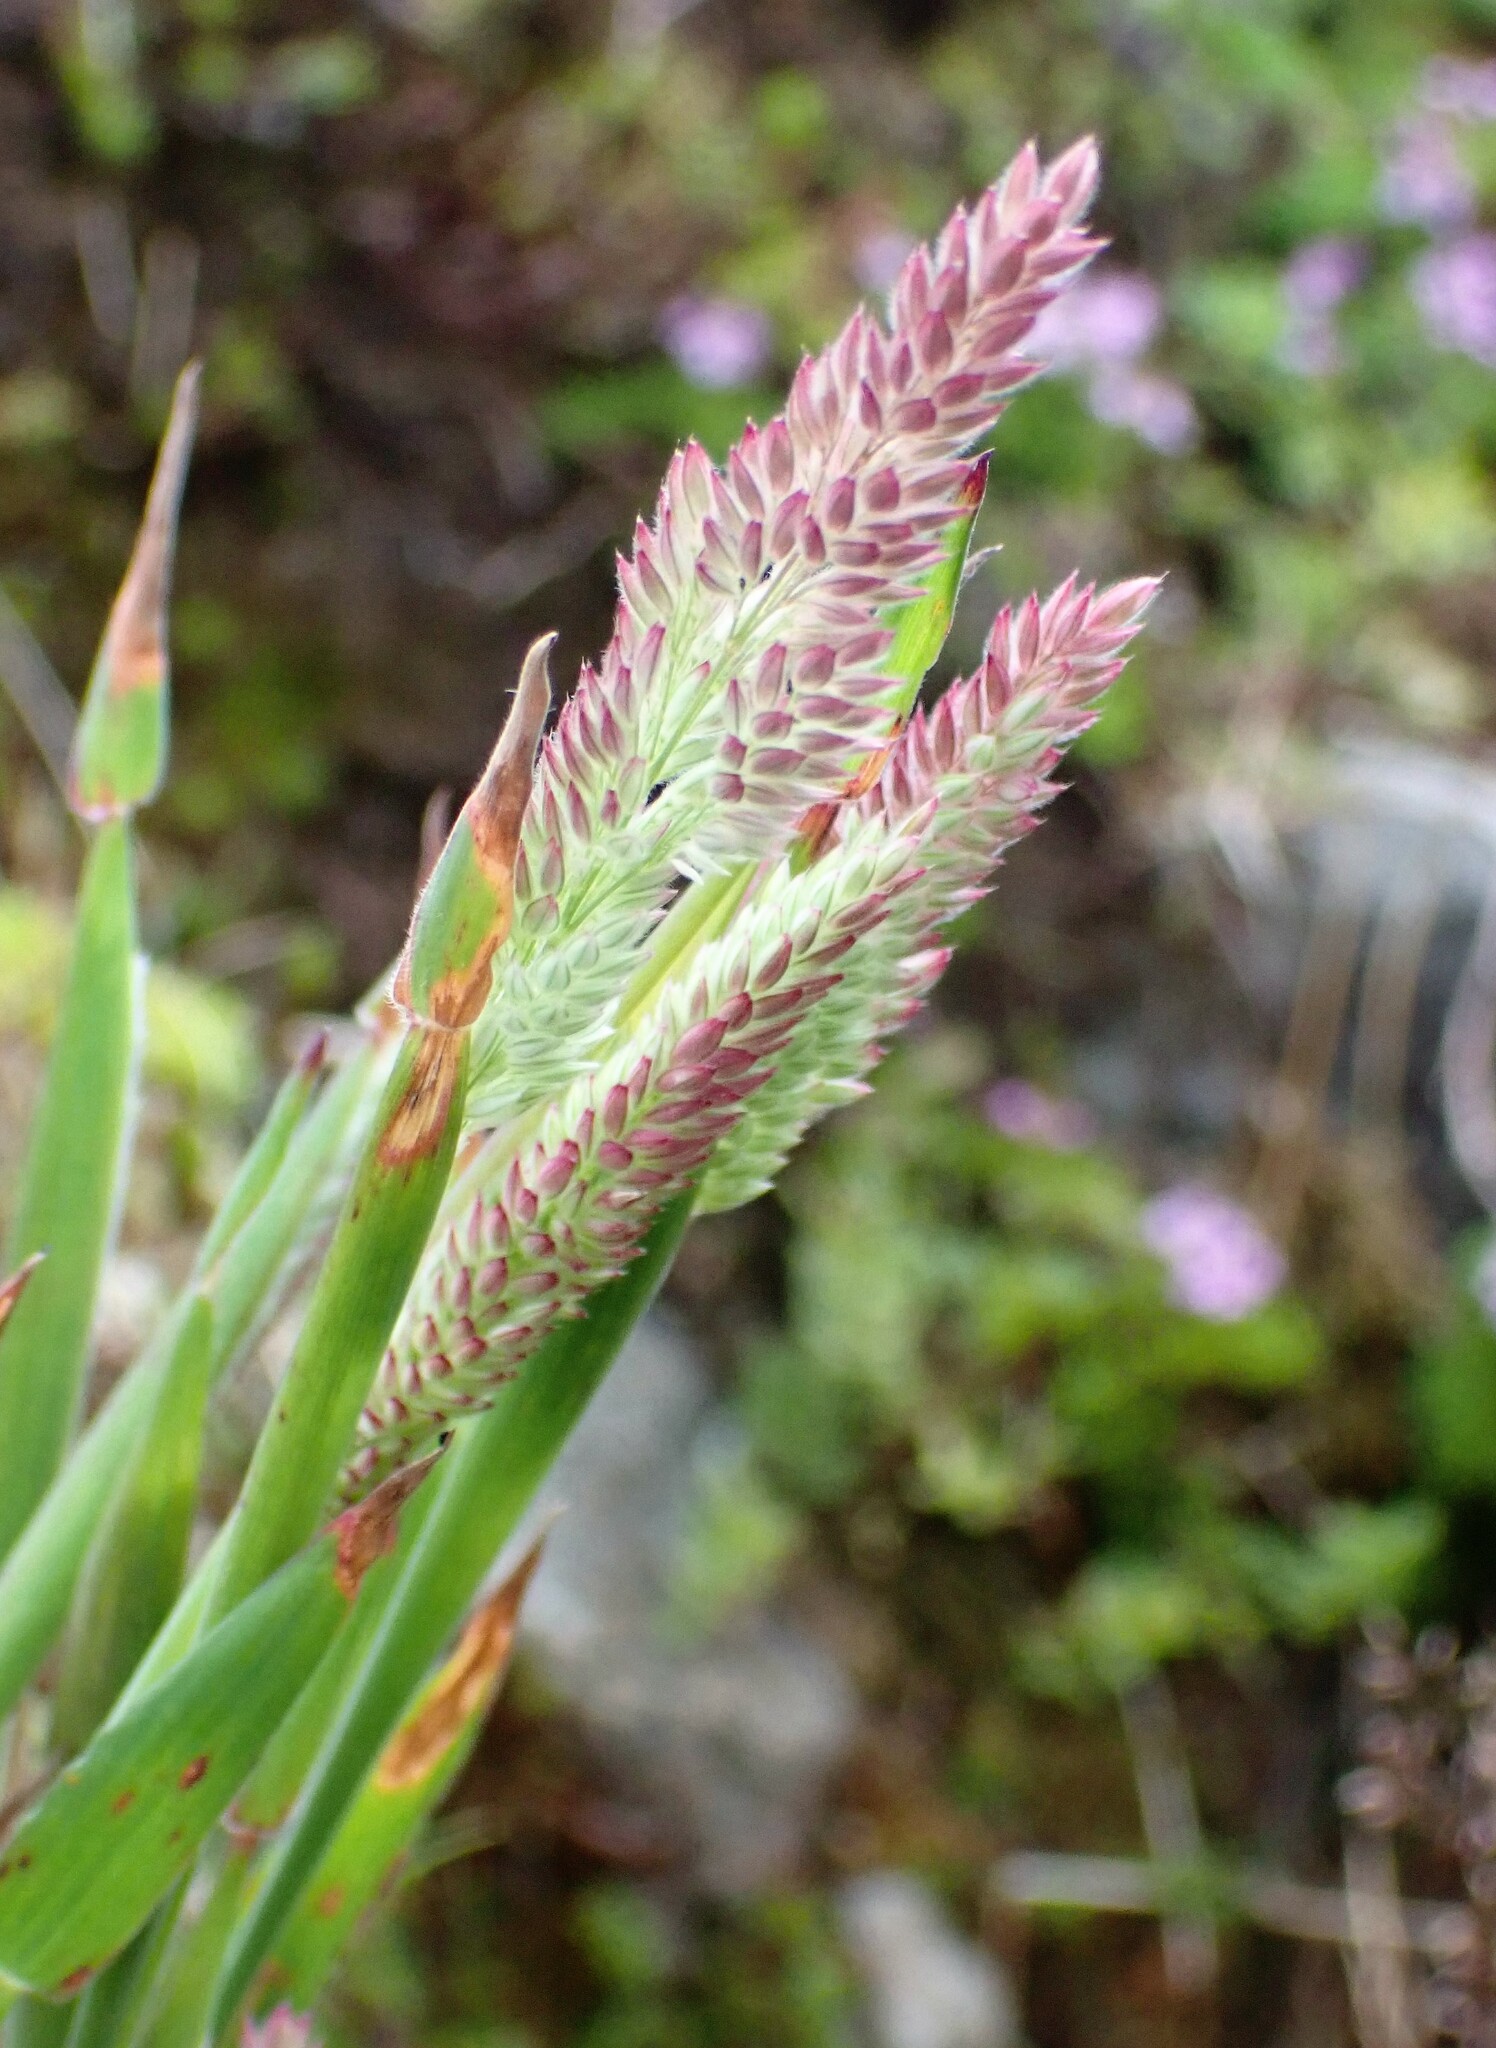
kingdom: Plantae
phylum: Tracheophyta
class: Liliopsida
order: Poales
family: Poaceae
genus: Holcus
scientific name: Holcus lanatus
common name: Yorkshire-fog
